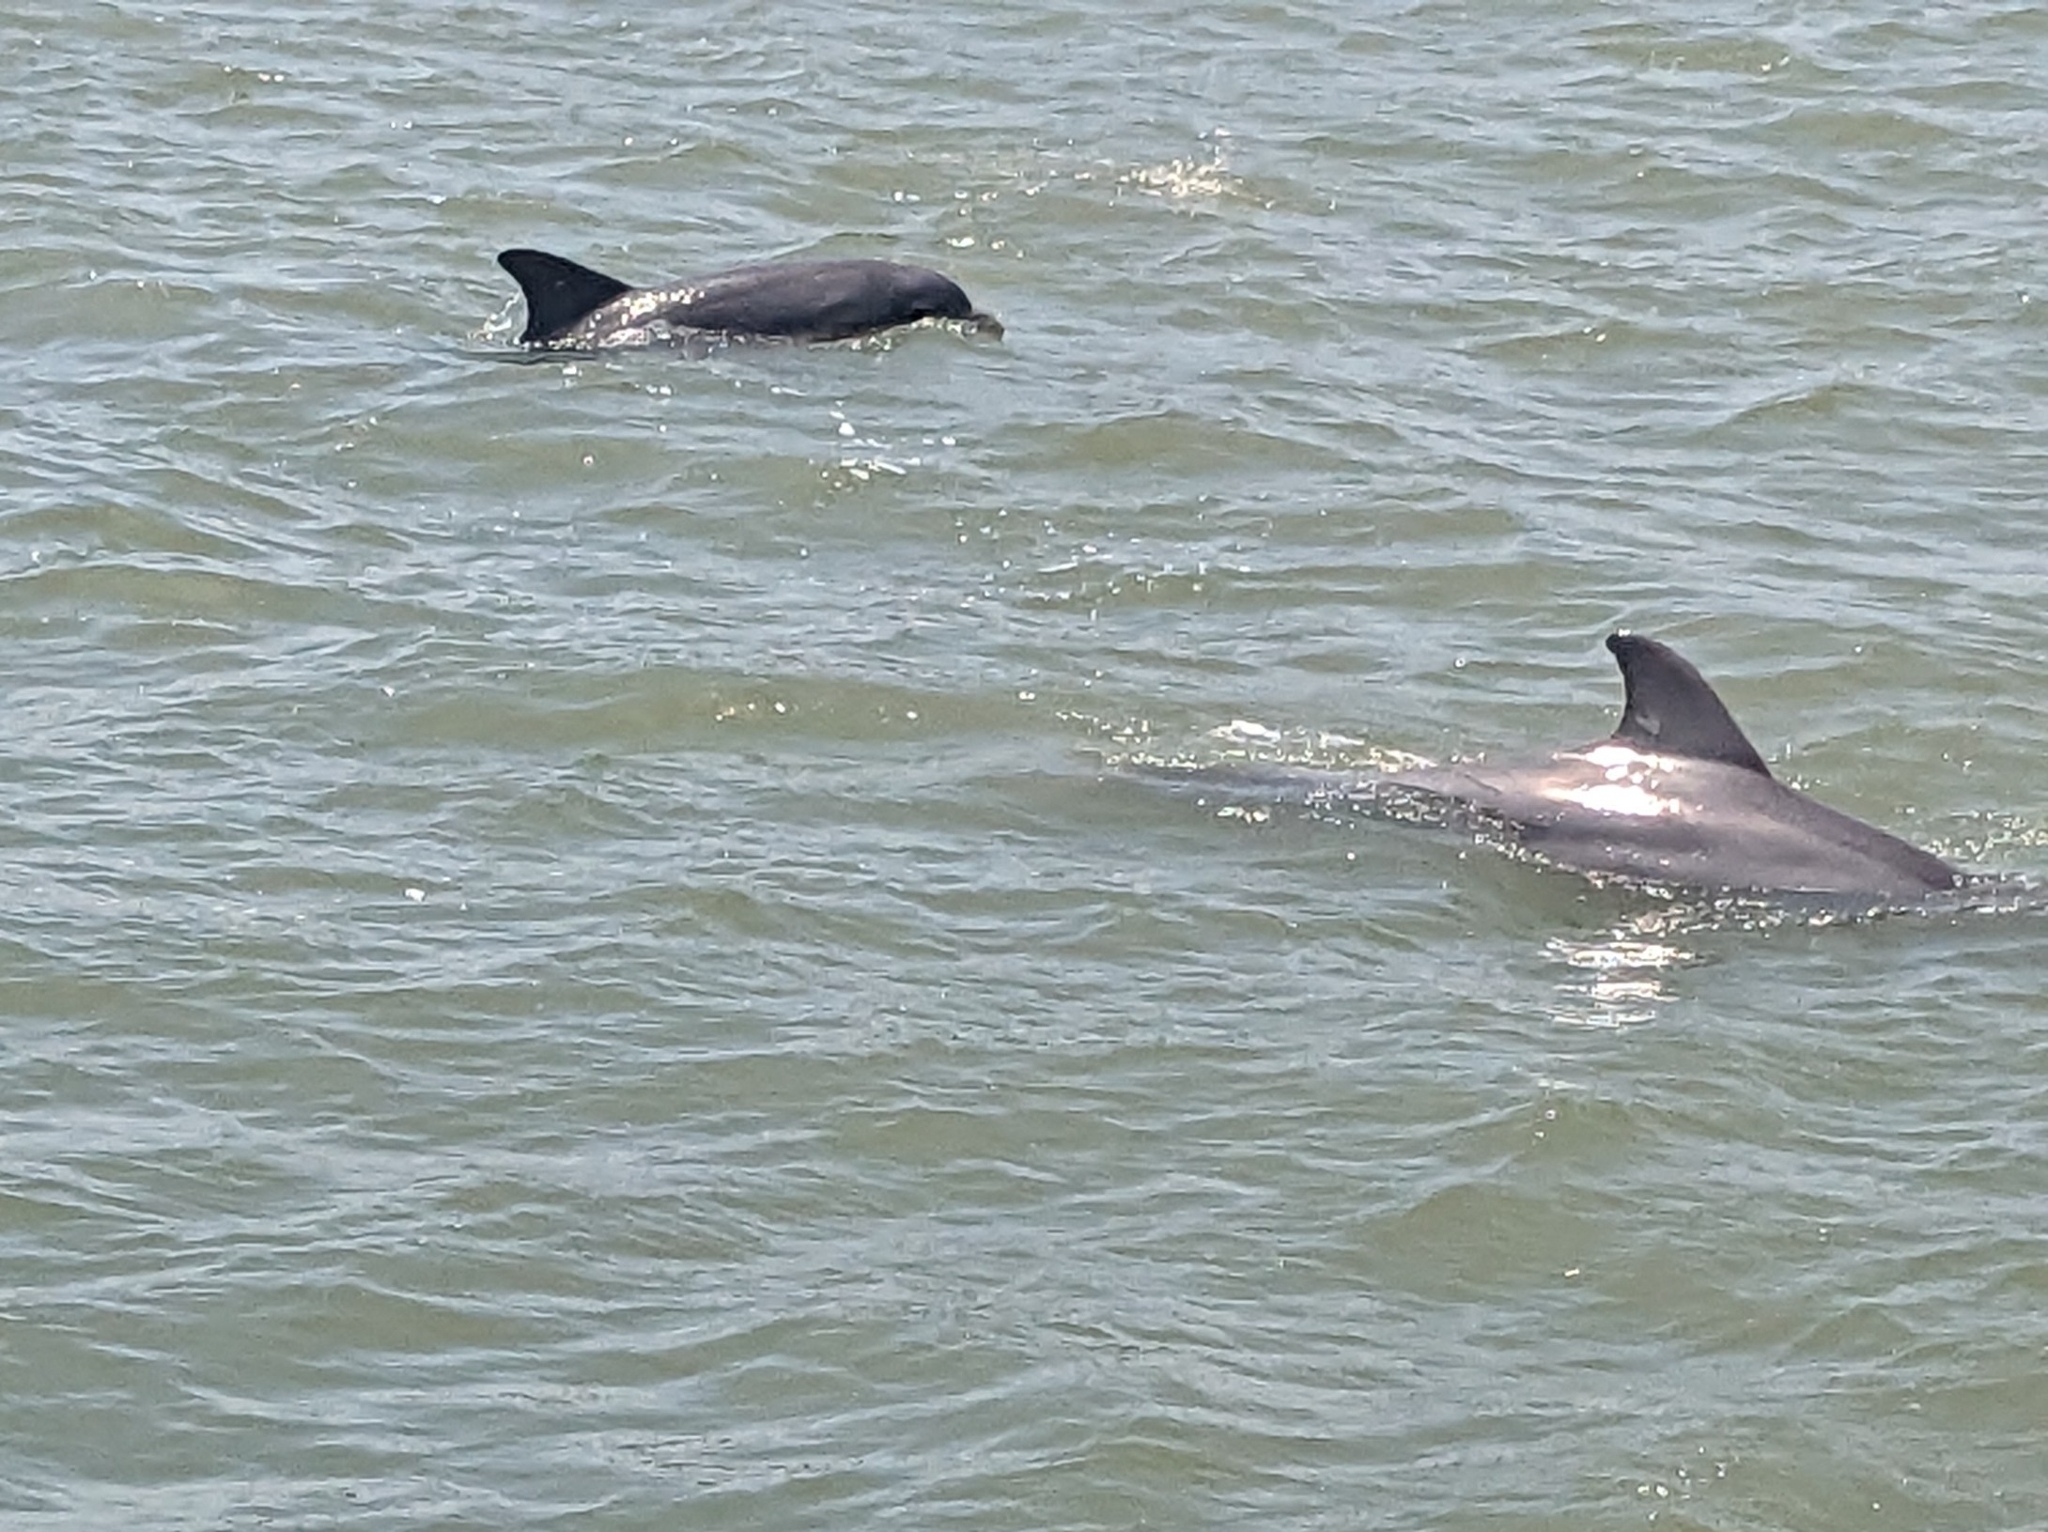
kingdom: Animalia
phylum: Chordata
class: Mammalia
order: Cetacea
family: Delphinidae
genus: Tursiops
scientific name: Tursiops truncatus
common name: Bottlenose dolphin
